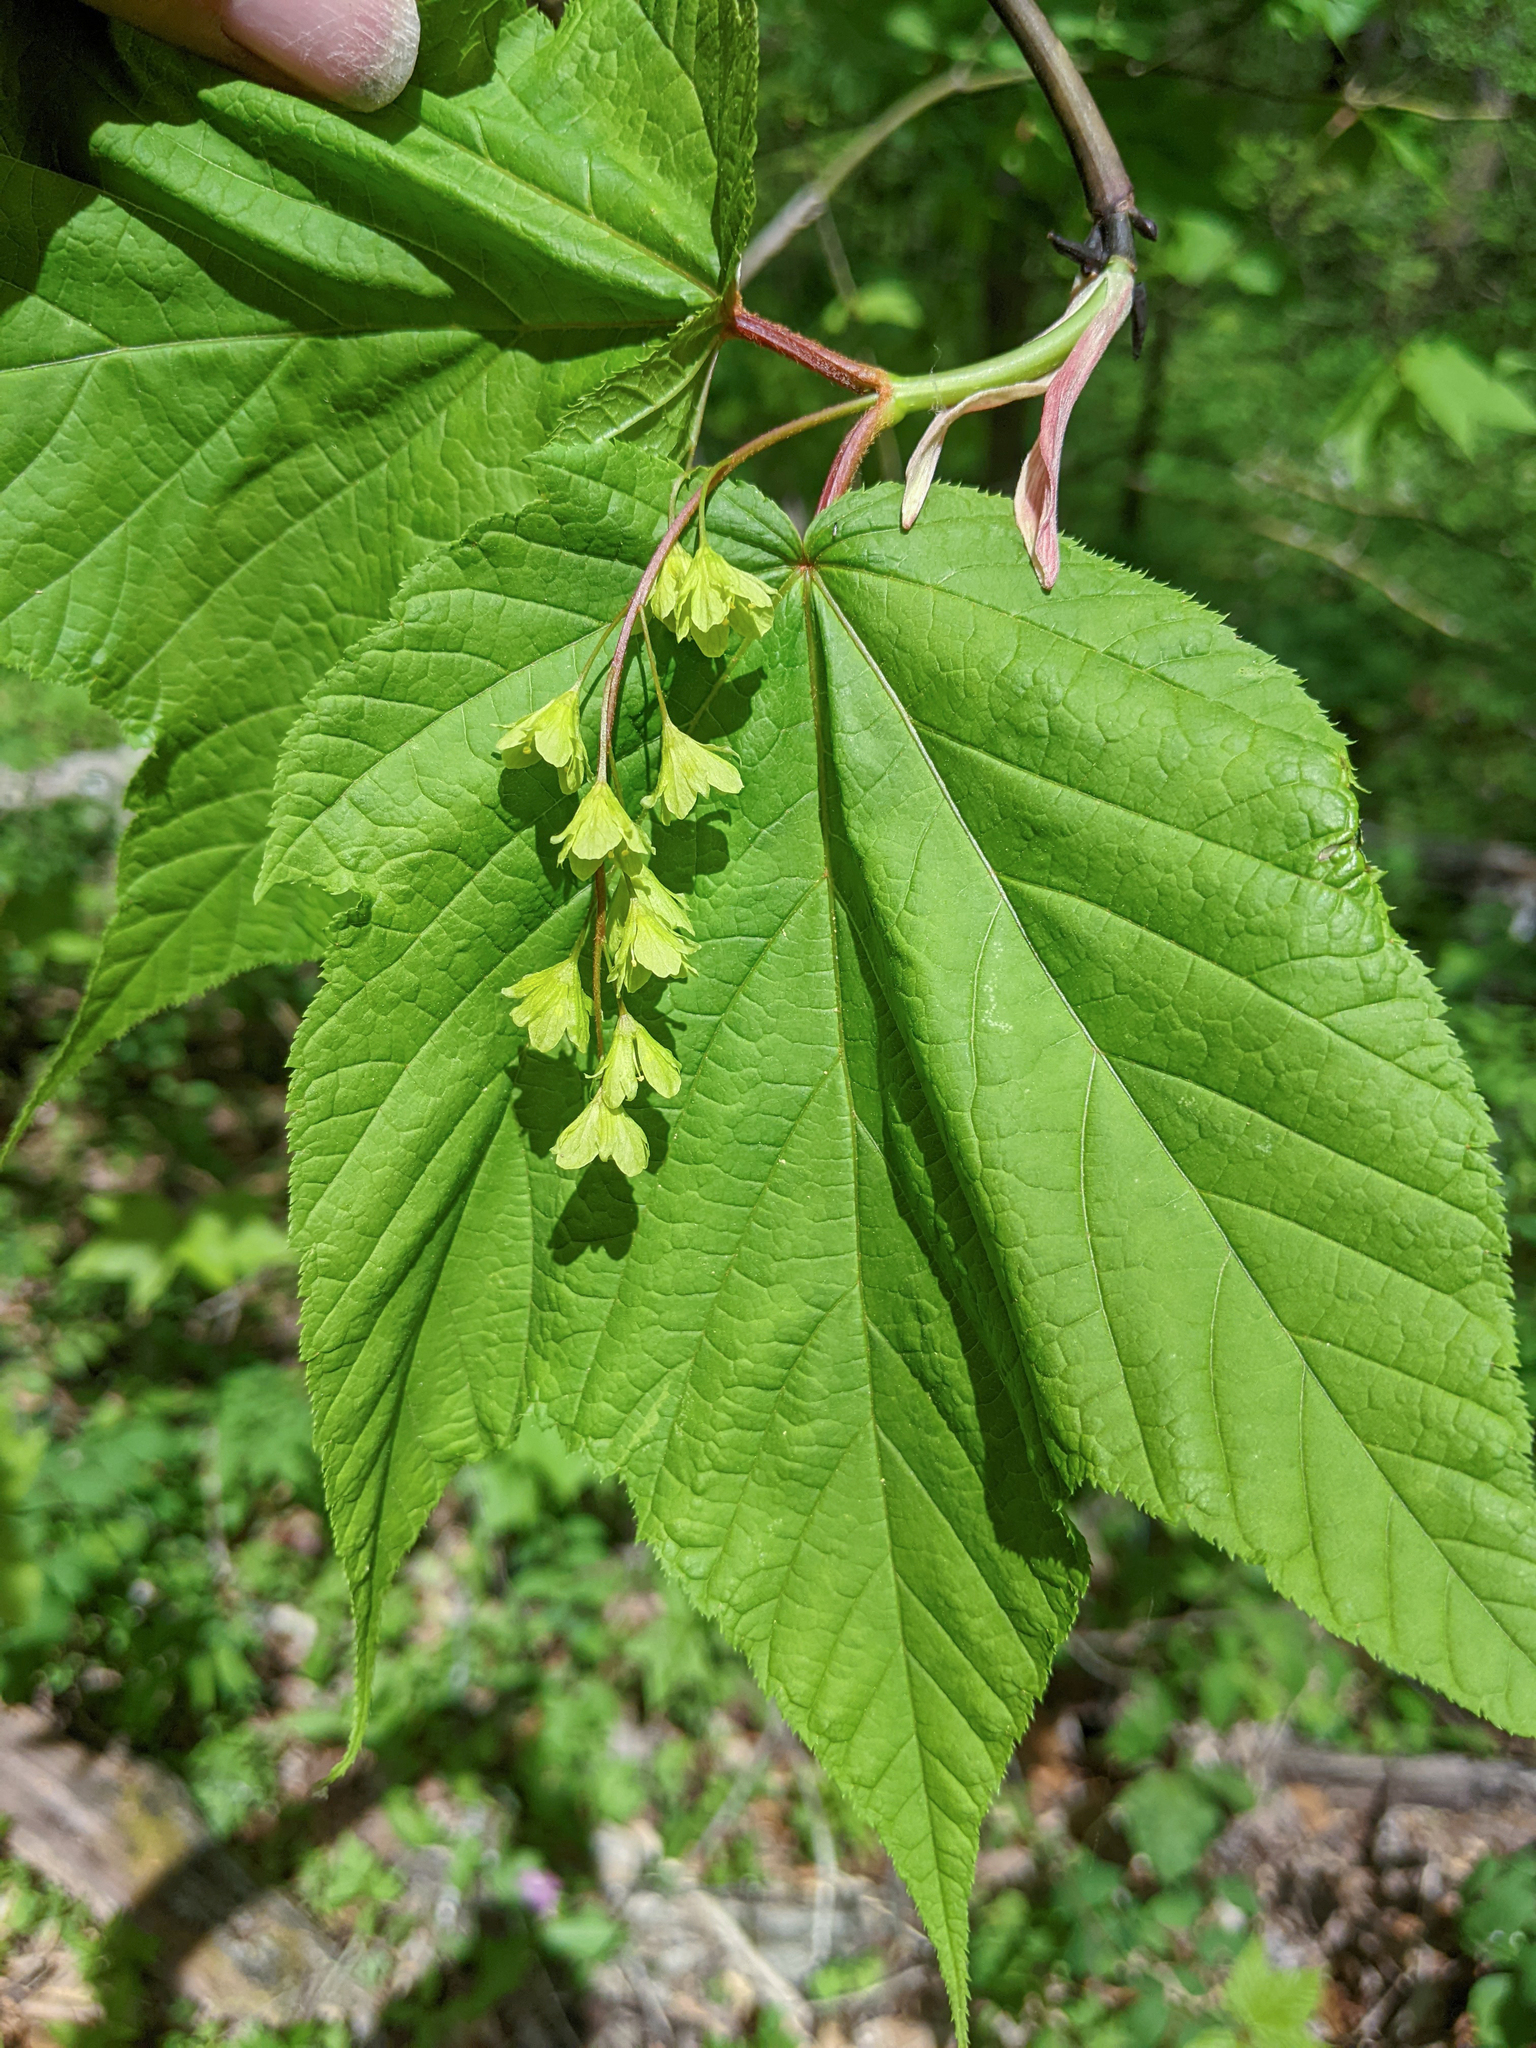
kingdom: Plantae
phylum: Tracheophyta
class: Magnoliopsida
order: Sapindales
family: Sapindaceae
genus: Acer
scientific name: Acer pensylvanicum
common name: Moosewood
